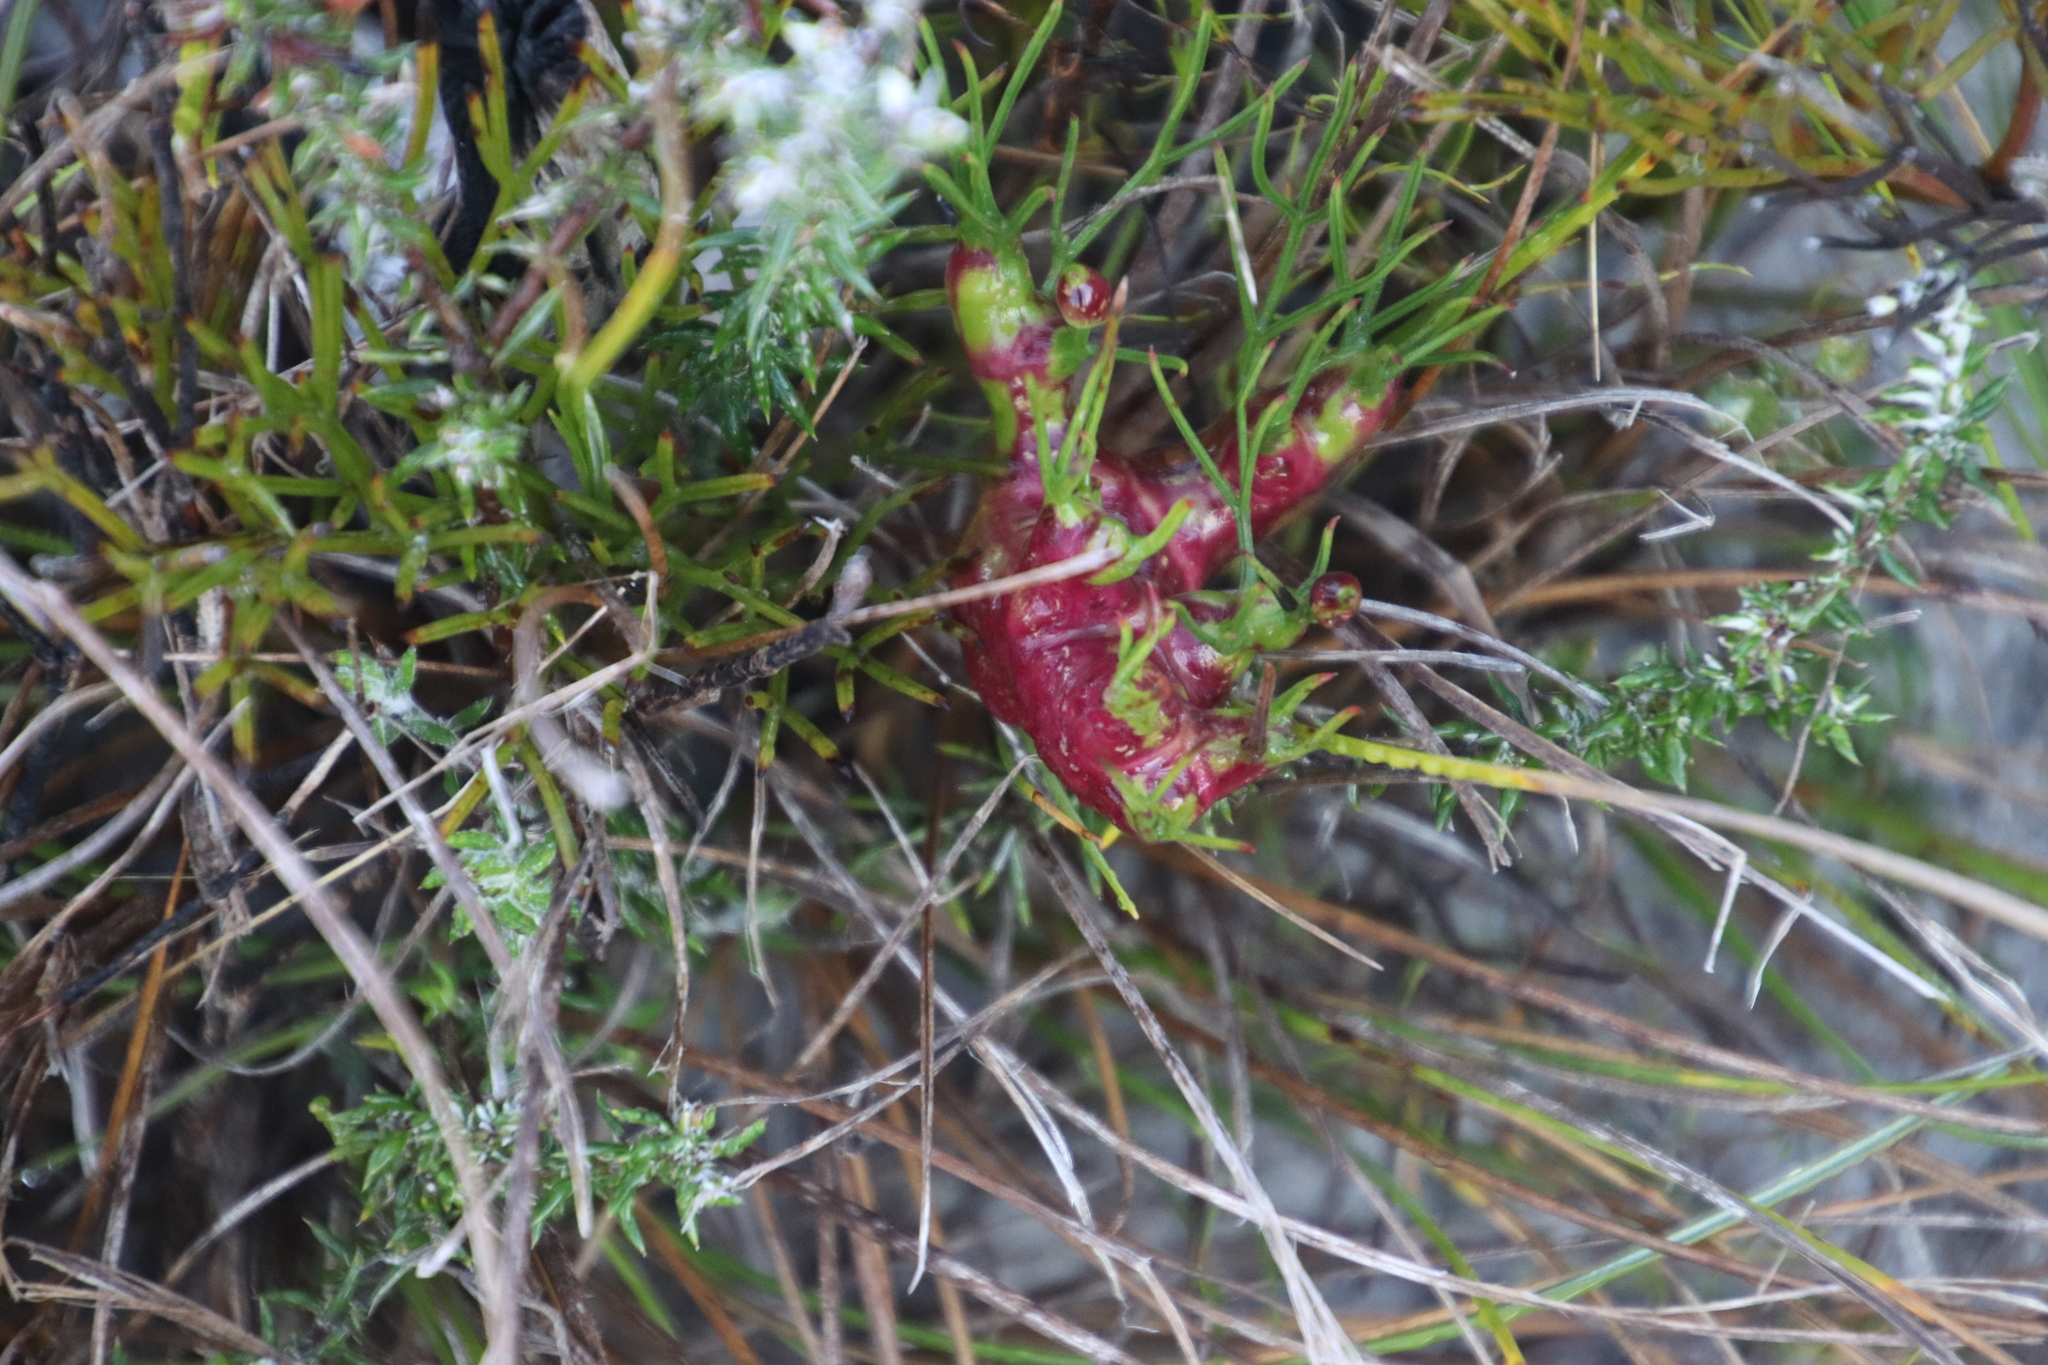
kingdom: Plantae
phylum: Tracheophyta
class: Magnoliopsida
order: Apiales
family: Apiaceae
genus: Nanobubon
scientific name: Nanobubon strictum
